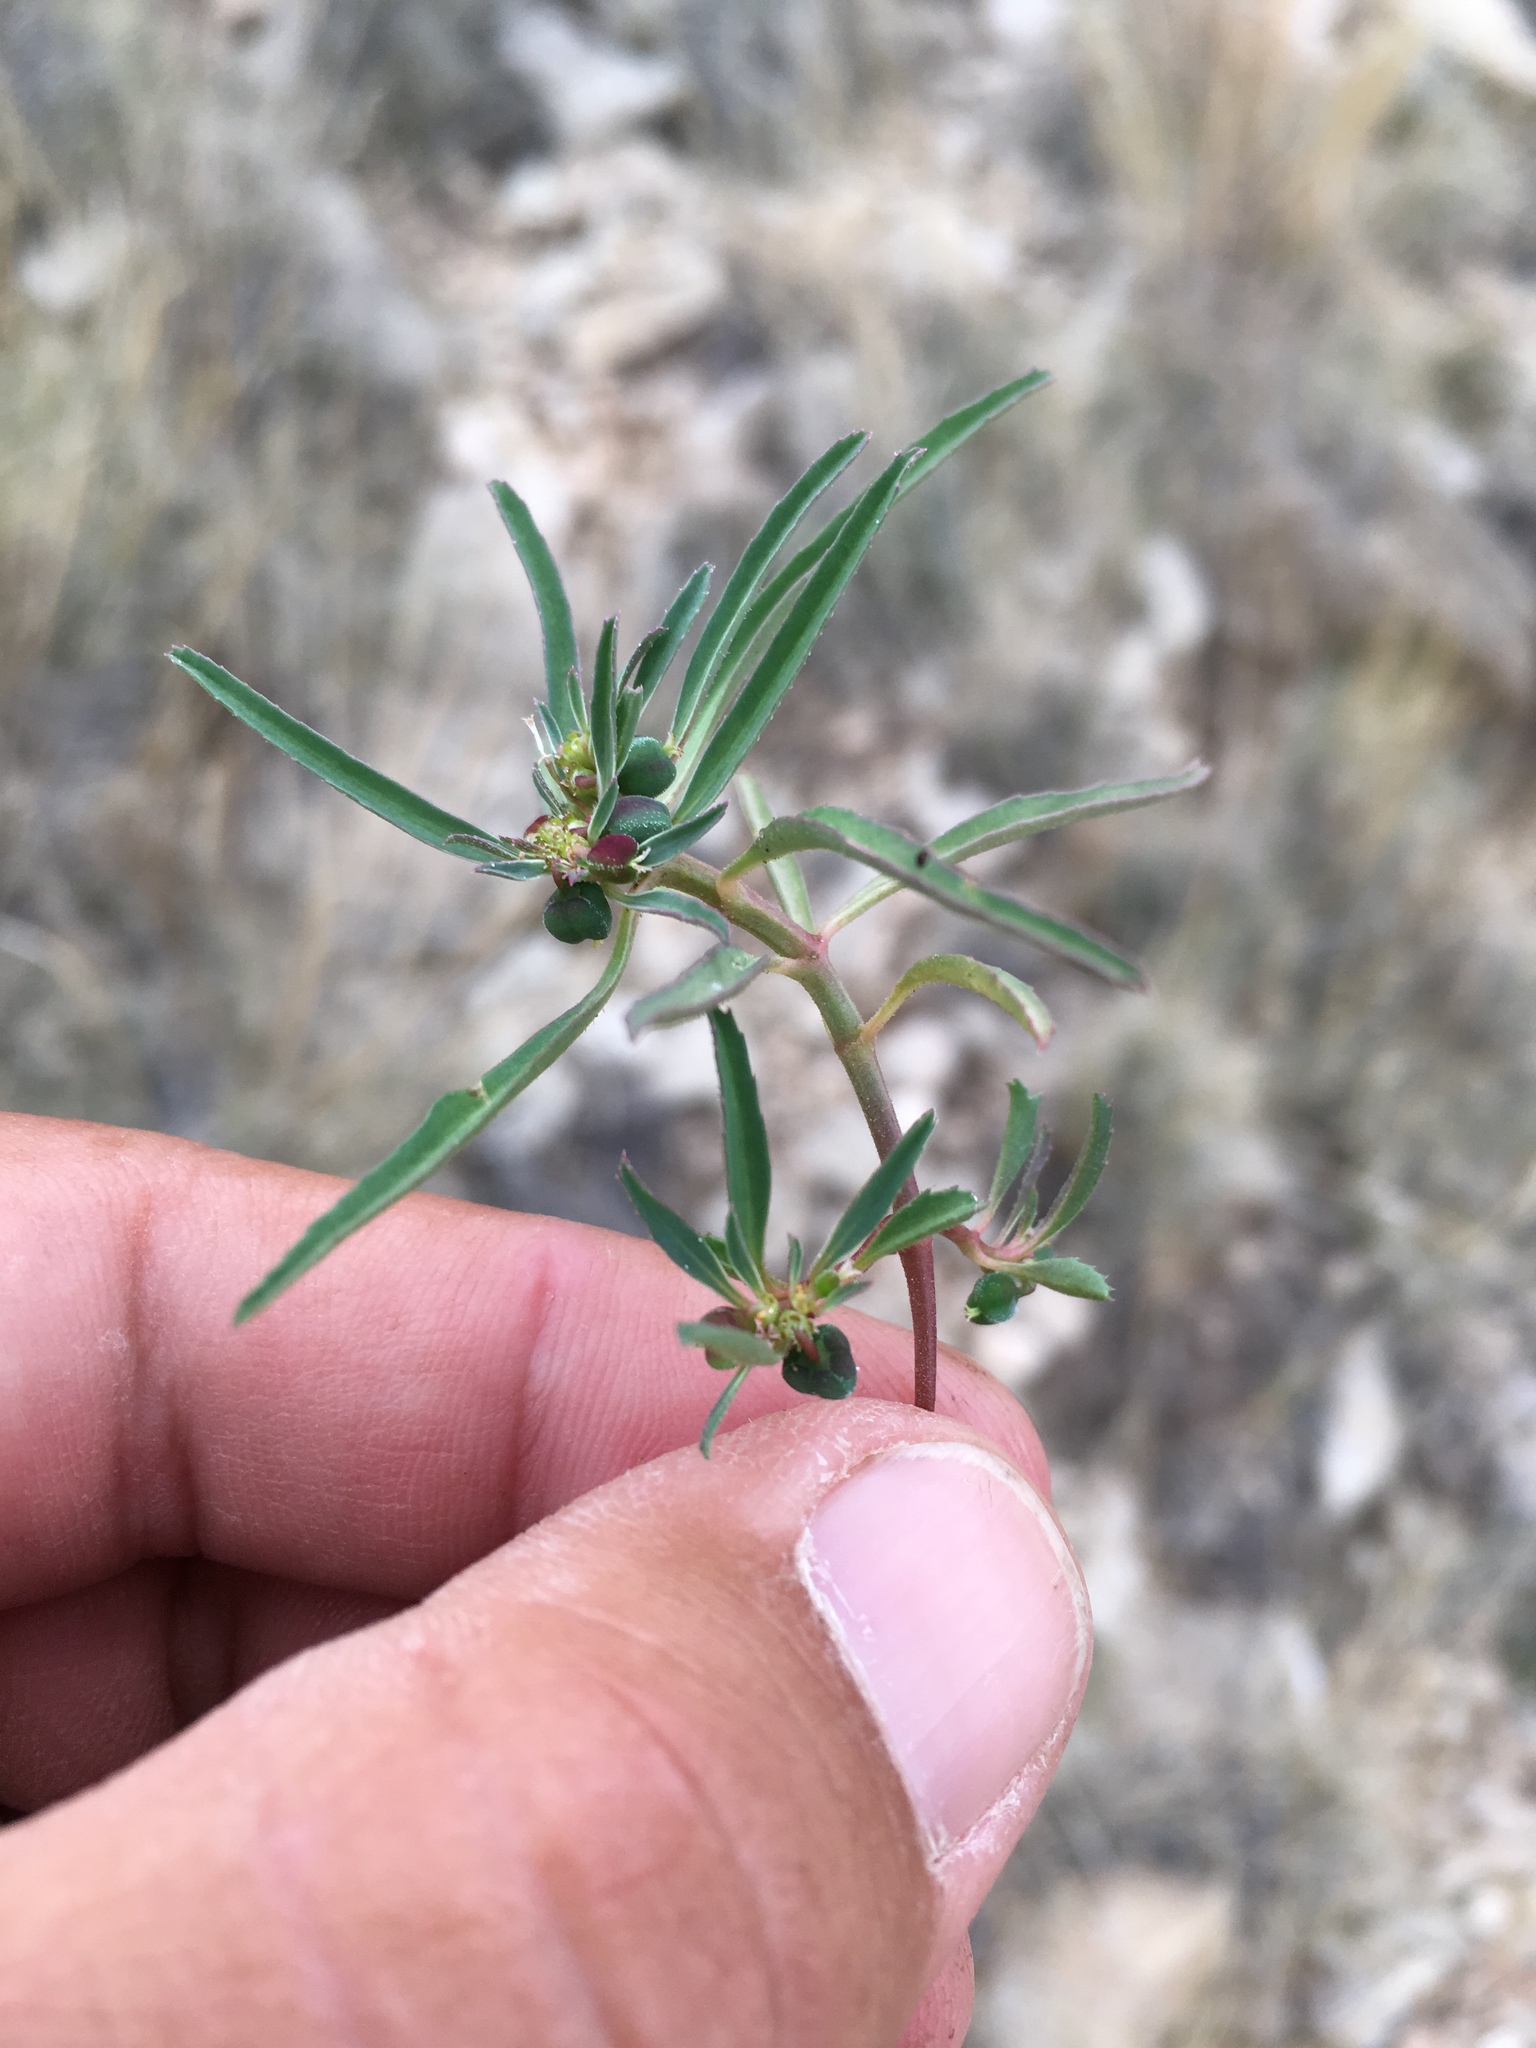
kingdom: Plantae
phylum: Tracheophyta
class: Magnoliopsida
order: Malpighiales
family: Euphorbiaceae
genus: Euphorbia
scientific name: Euphorbia exstipulata
